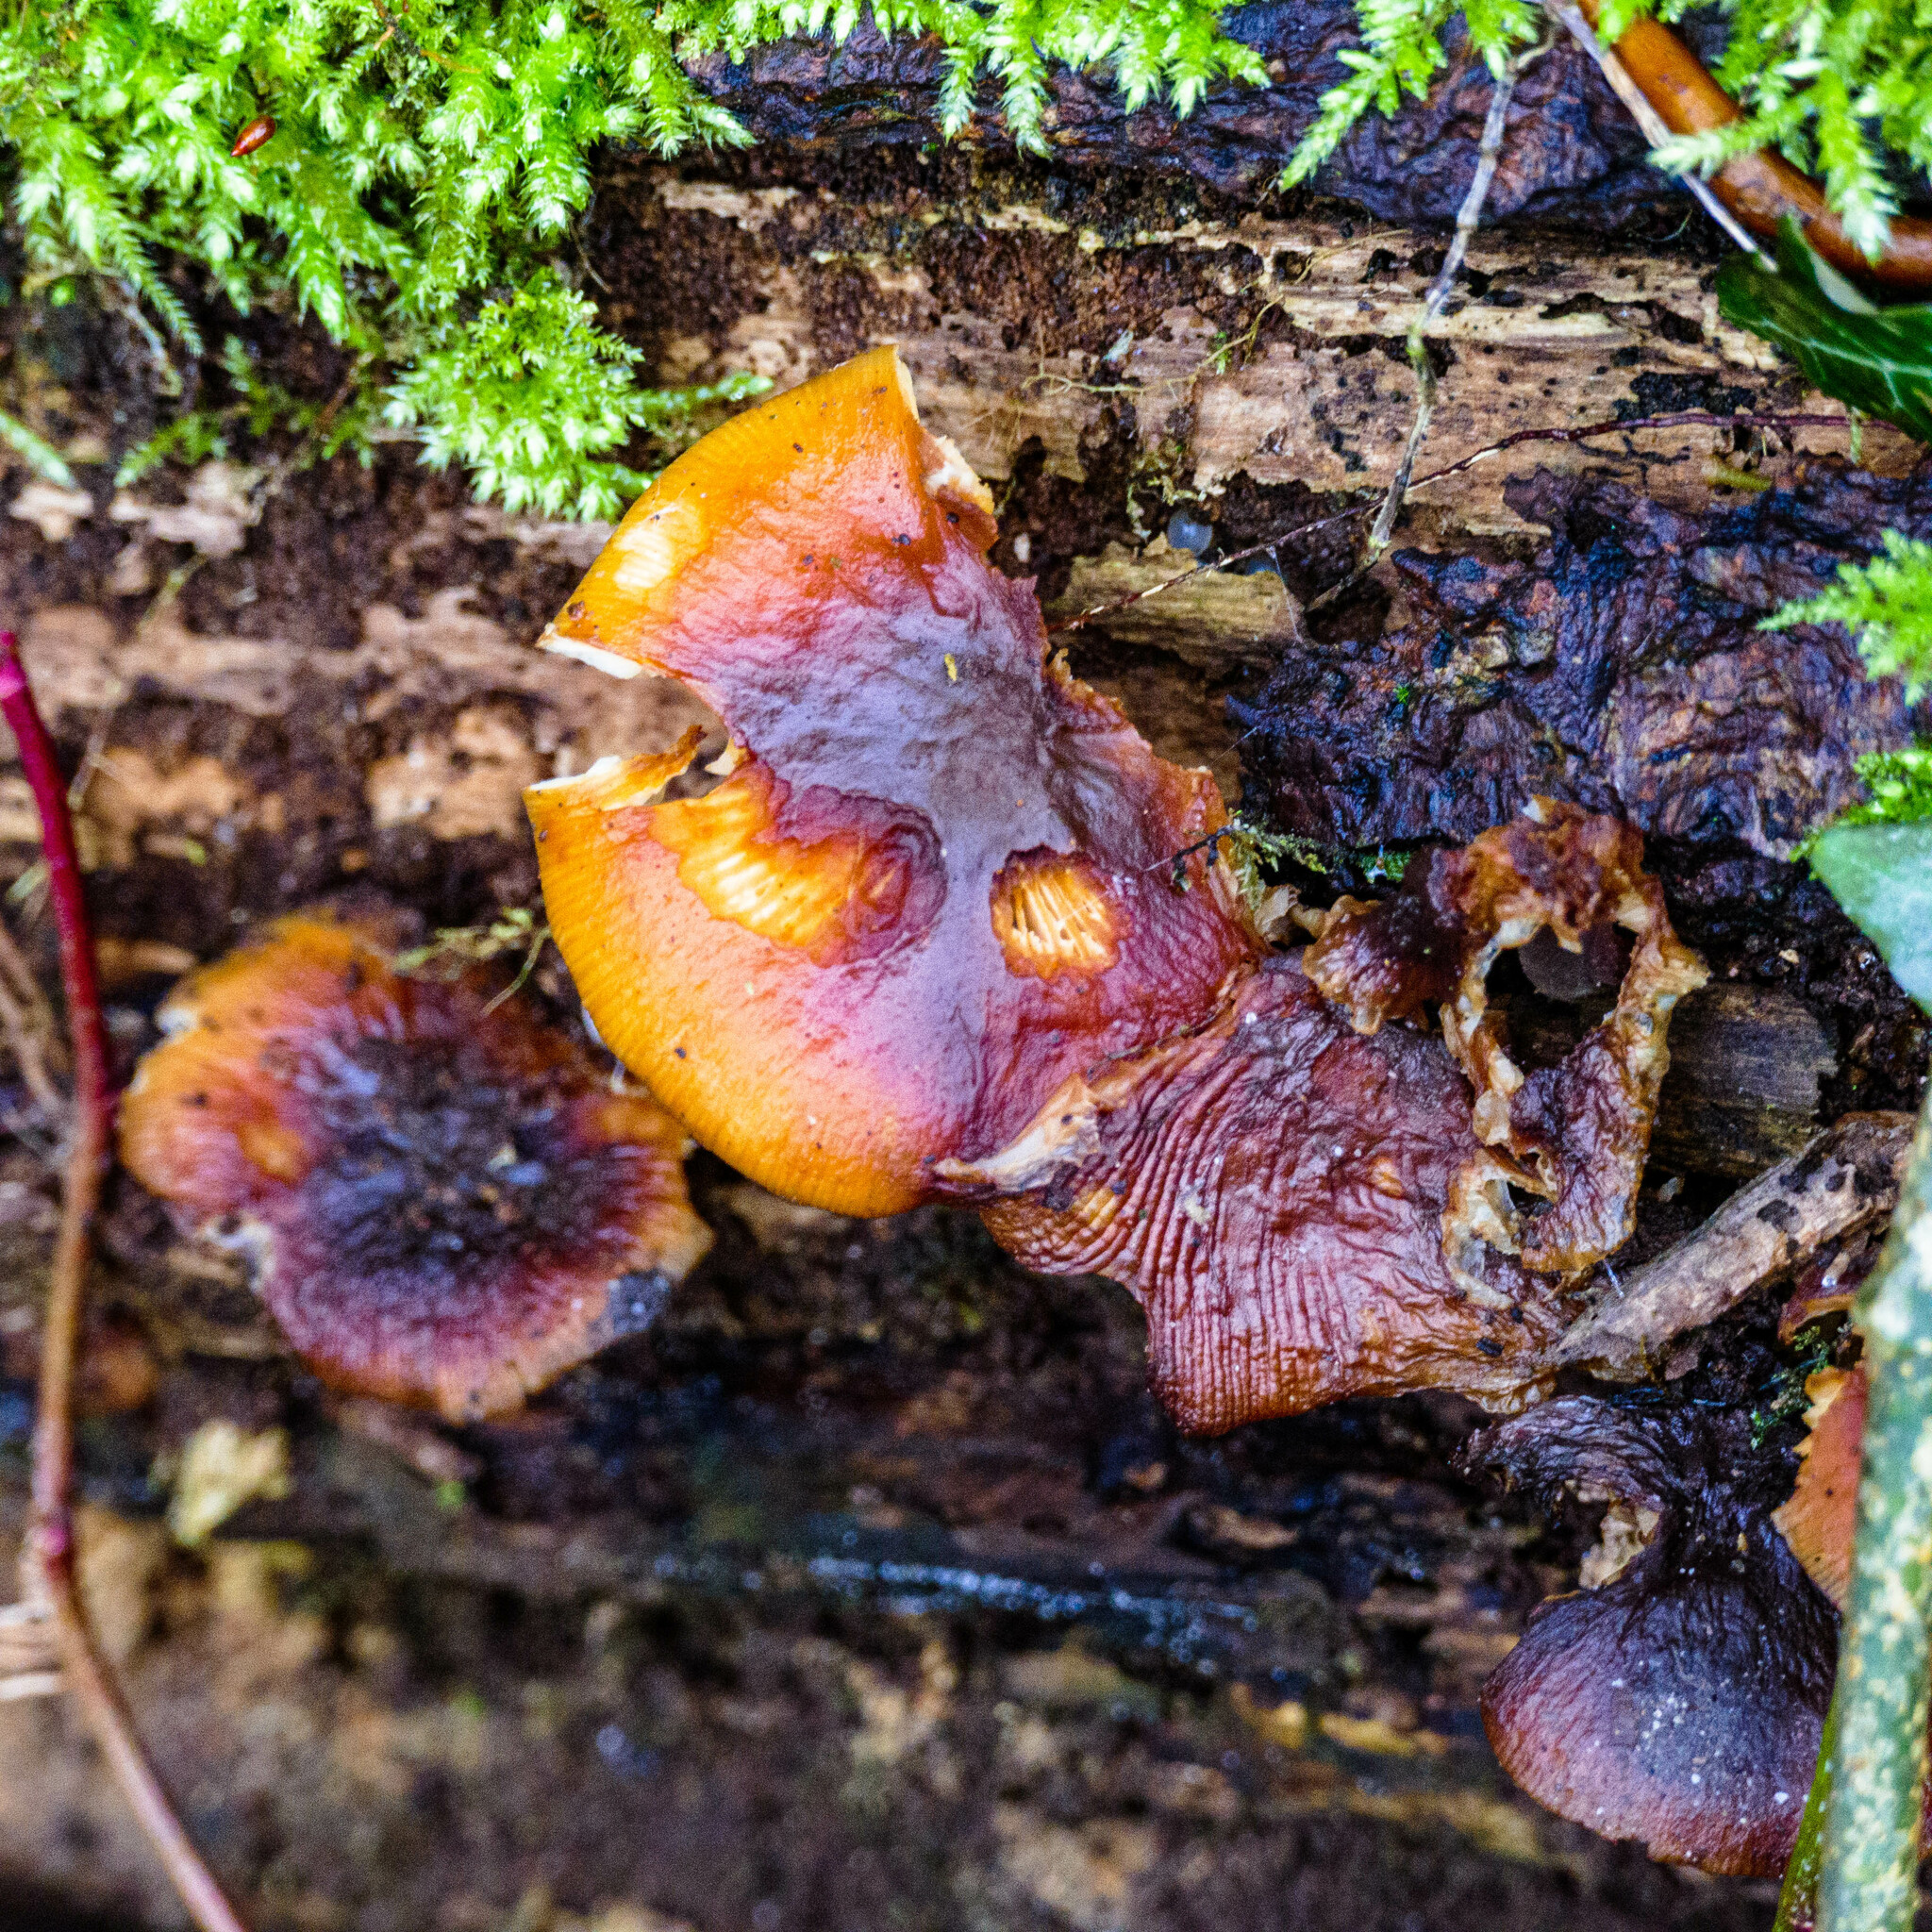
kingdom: Fungi
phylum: Basidiomycota
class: Agaricomycetes
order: Agaricales
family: Physalacriaceae
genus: Flammulina
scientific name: Flammulina
